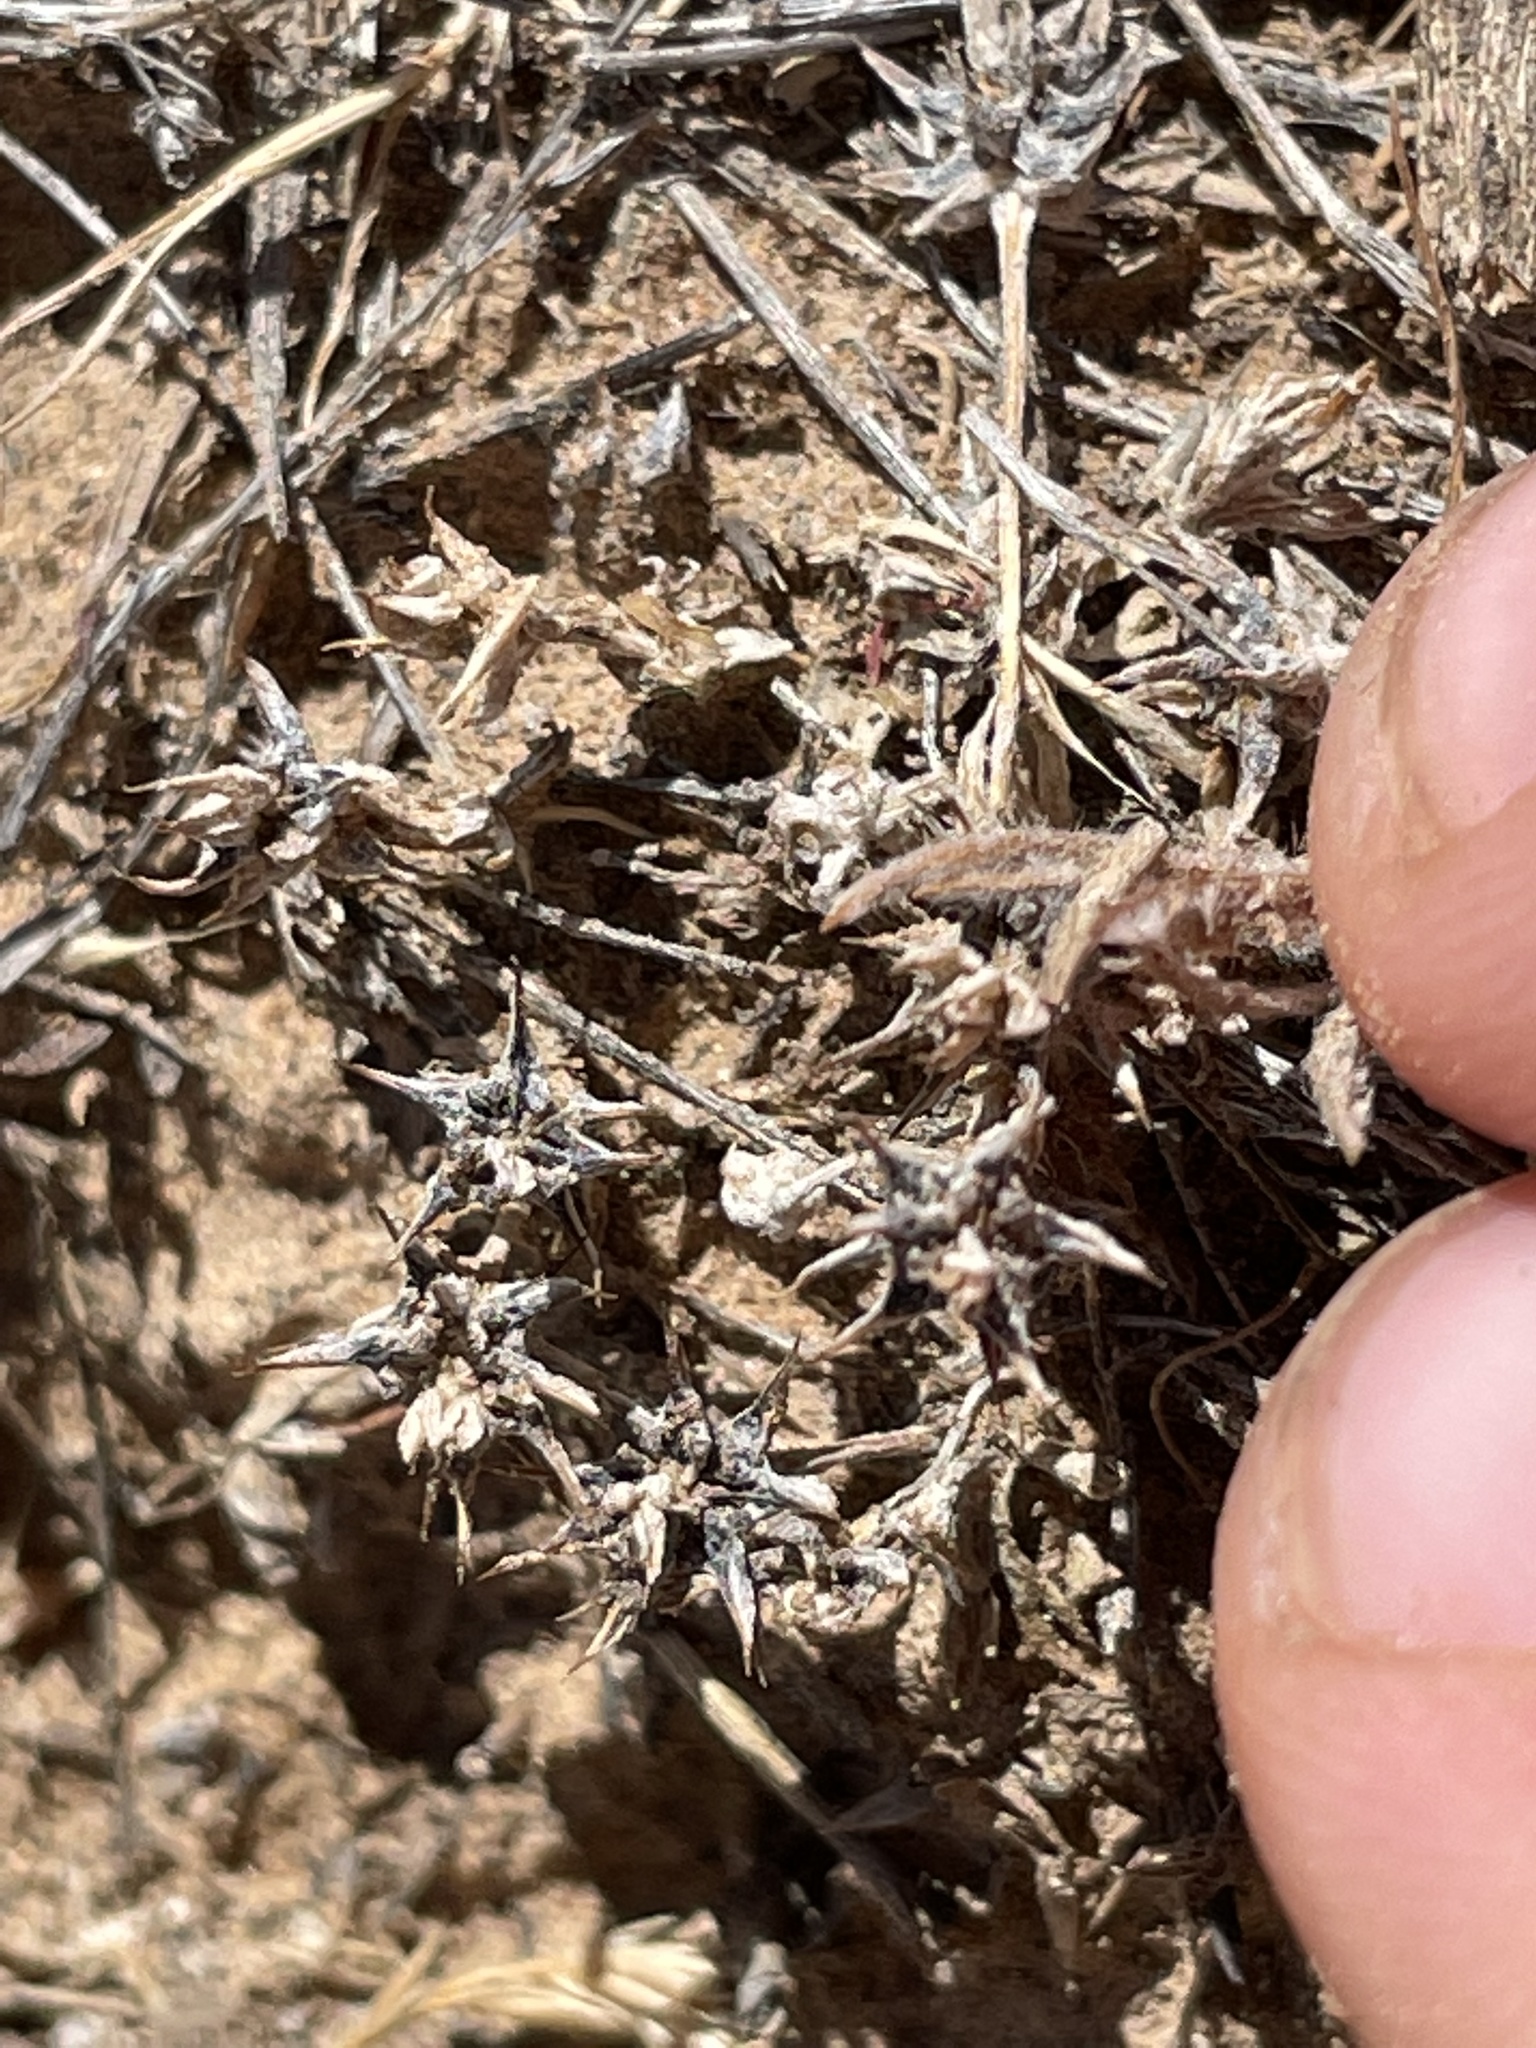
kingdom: Plantae
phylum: Tracheophyta
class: Magnoliopsida
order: Ranunculales
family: Ranunculaceae
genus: Ceratocephala
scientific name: Ceratocephala orthoceras
